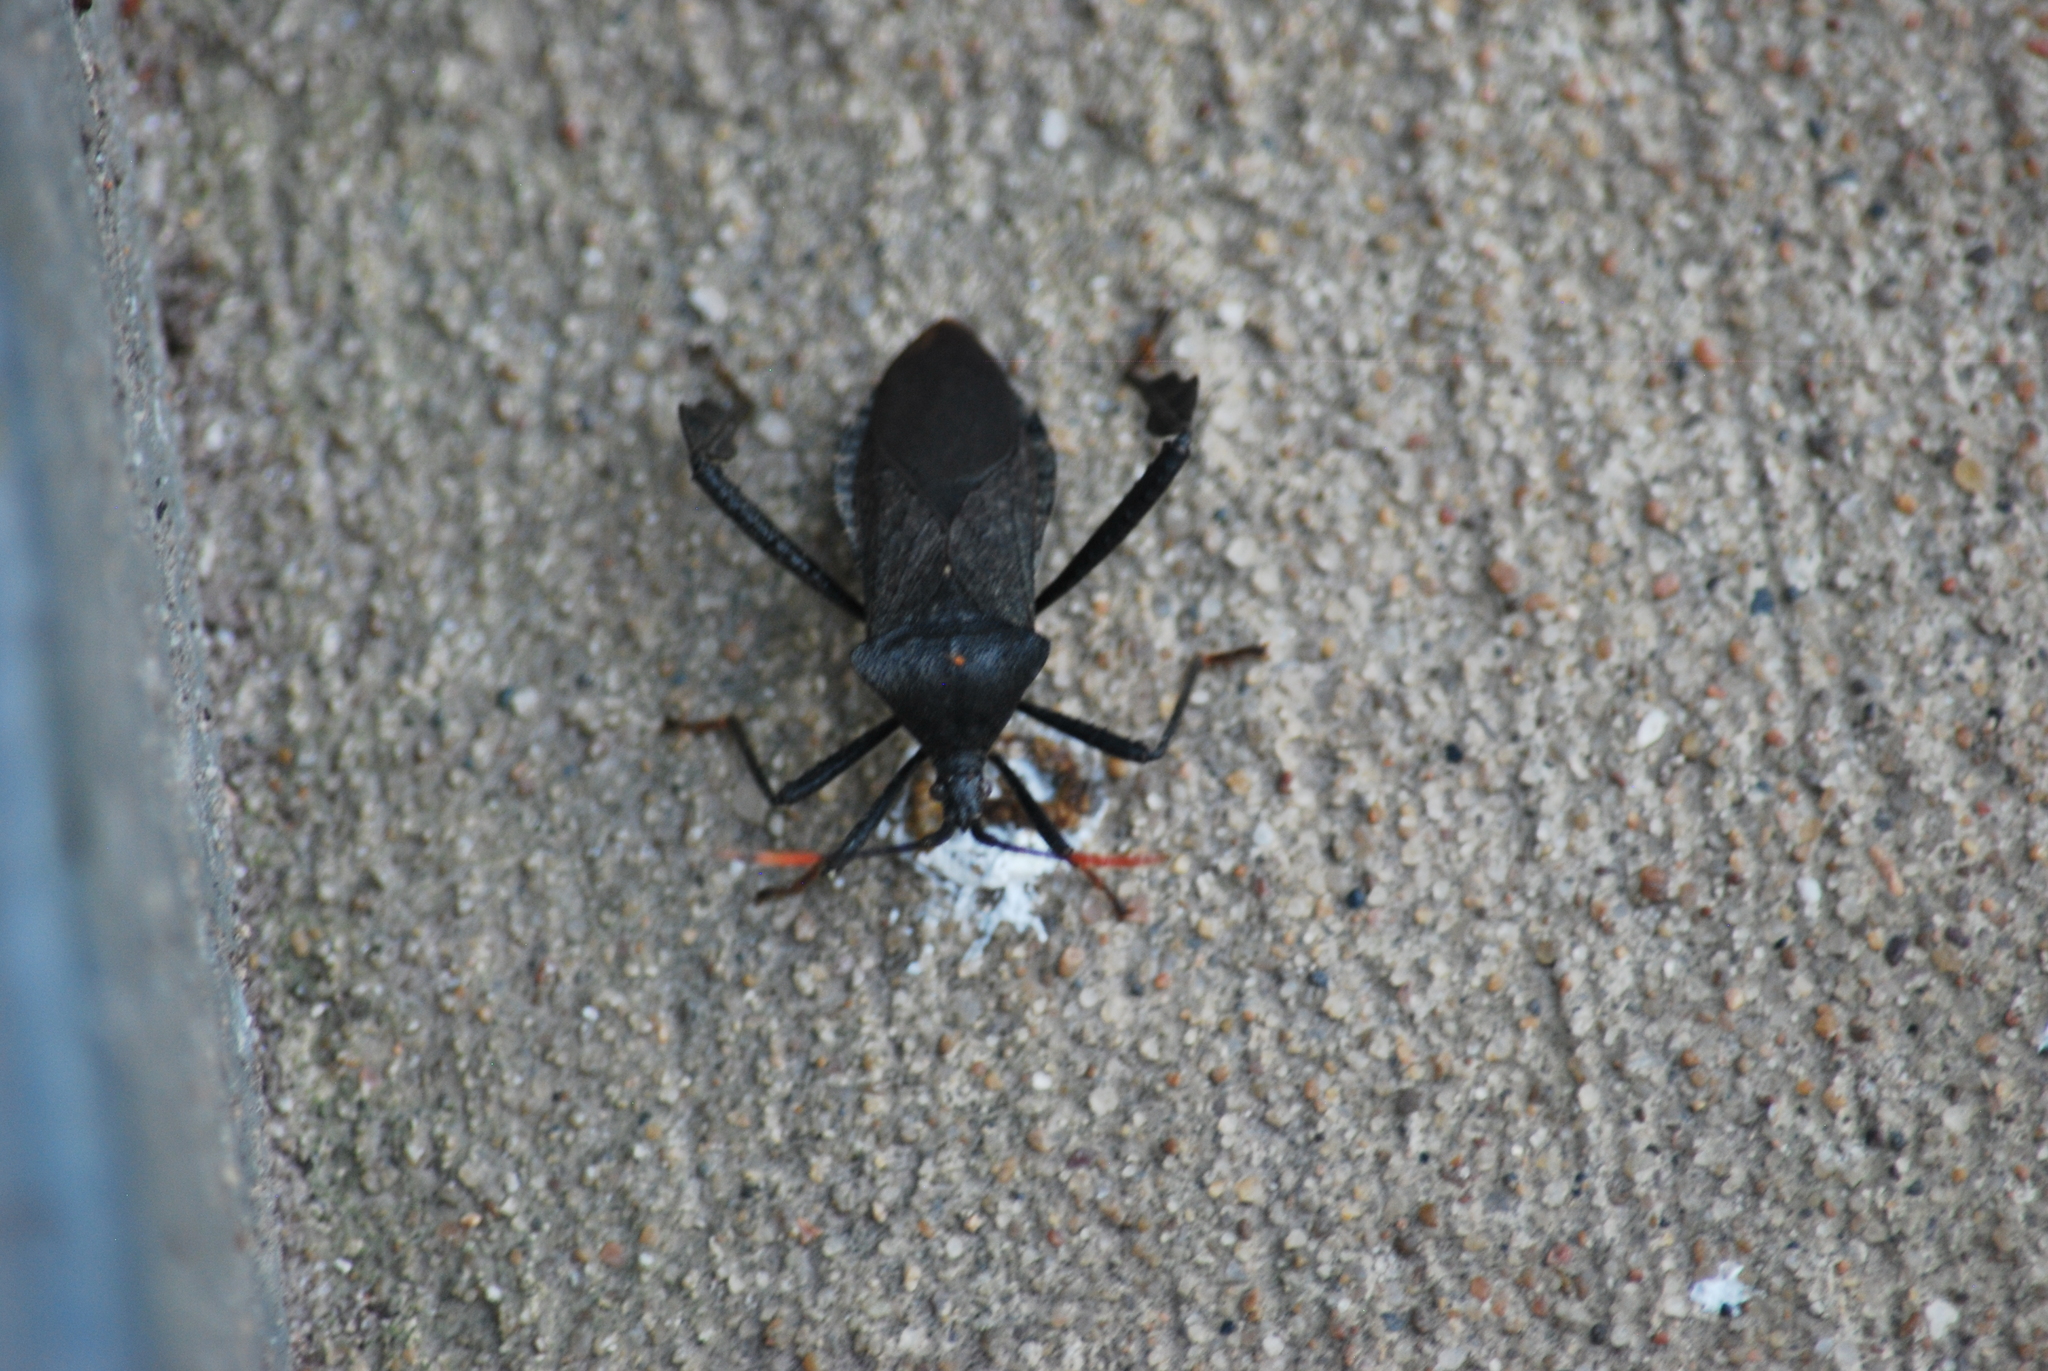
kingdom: Animalia
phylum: Arthropoda
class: Insecta
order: Hemiptera
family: Coreidae
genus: Acanthocephala
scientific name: Acanthocephala terminalis
